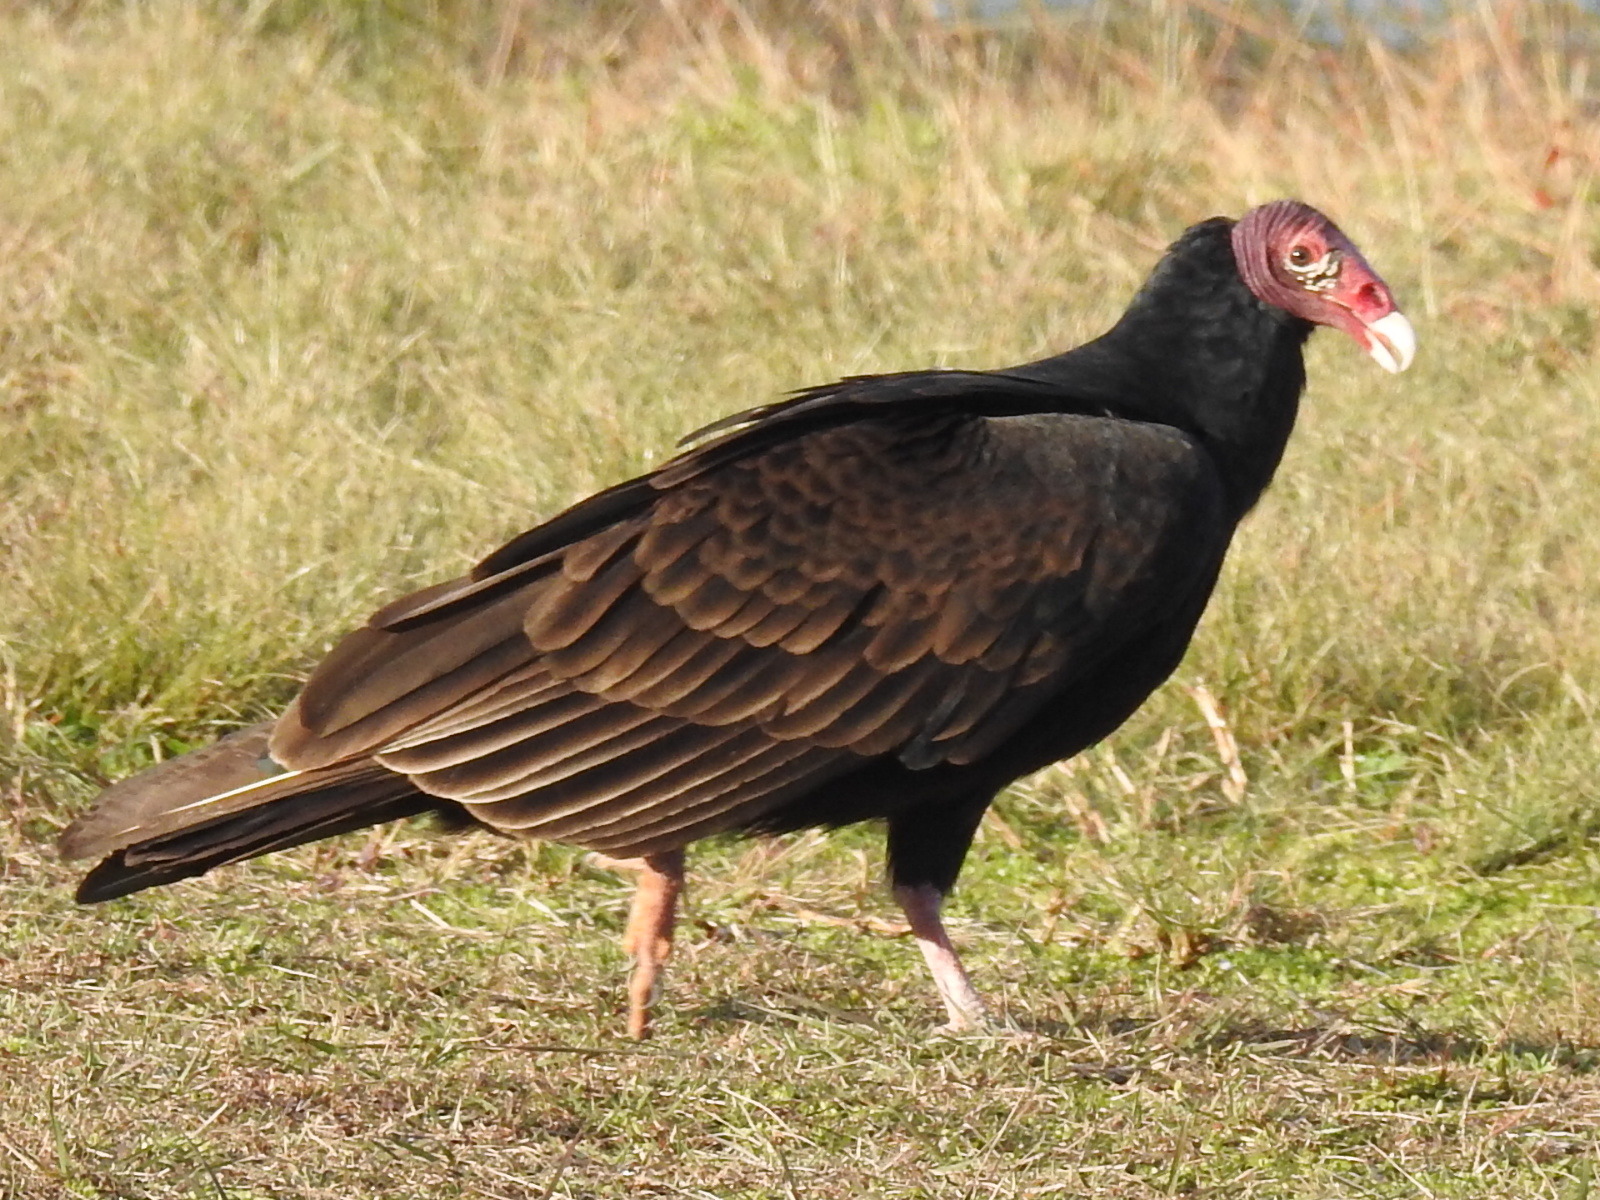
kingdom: Animalia
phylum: Chordata
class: Aves
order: Accipitriformes
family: Cathartidae
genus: Cathartes
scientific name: Cathartes aura
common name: Turkey vulture
